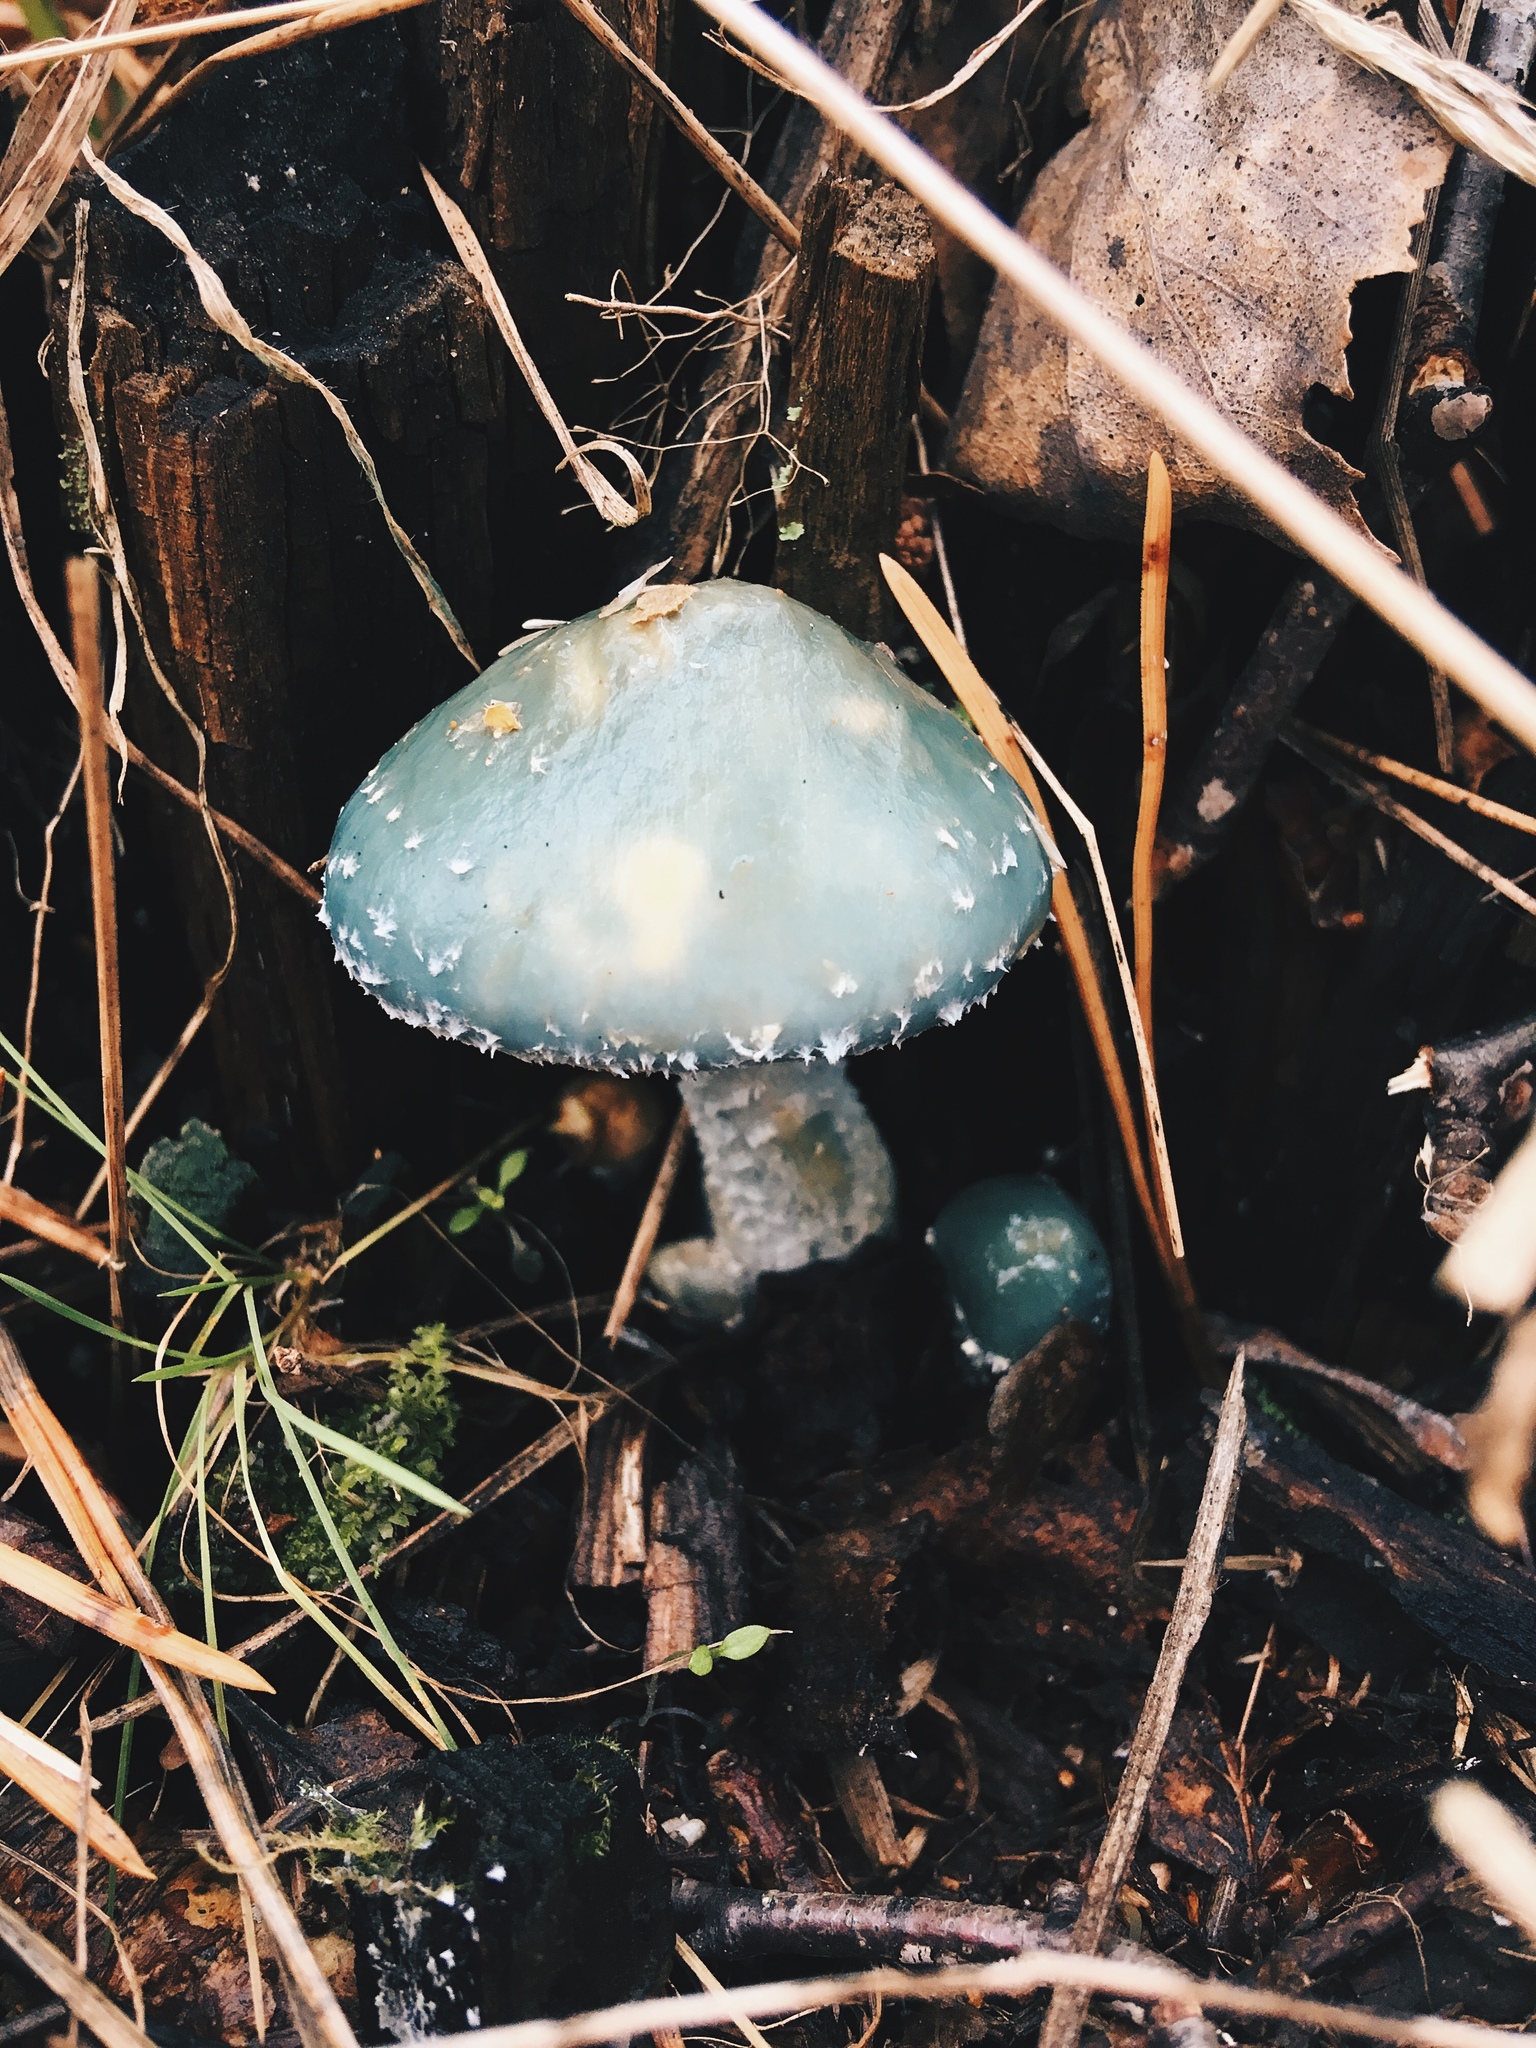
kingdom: Fungi
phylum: Basidiomycota
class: Agaricomycetes
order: Agaricales
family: Strophariaceae
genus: Stropharia
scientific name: Stropharia aeruginosa
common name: Verdigris roundhead
